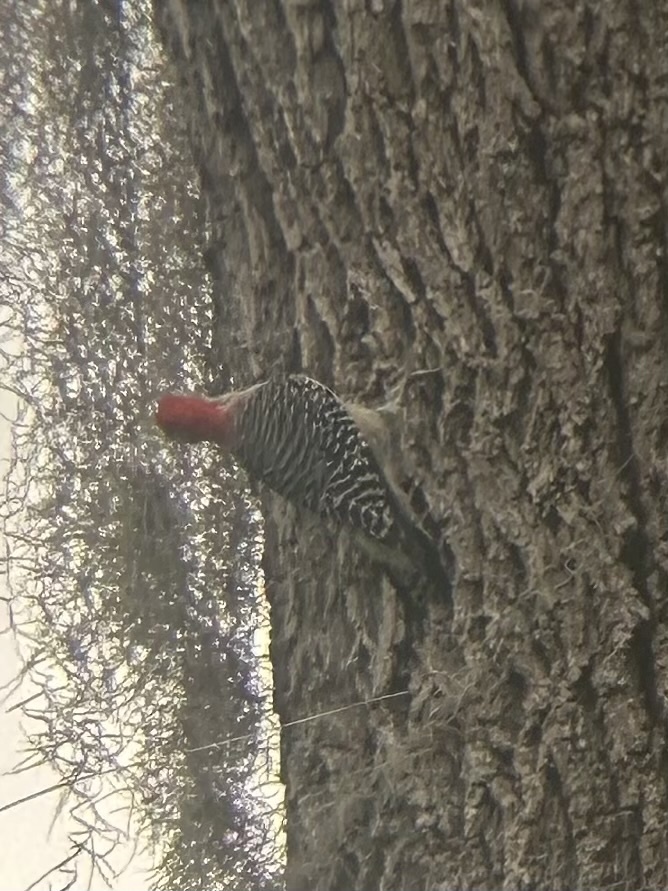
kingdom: Animalia
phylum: Chordata
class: Aves
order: Piciformes
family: Picidae
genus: Melanerpes
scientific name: Melanerpes carolinus
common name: Red-bellied woodpecker
